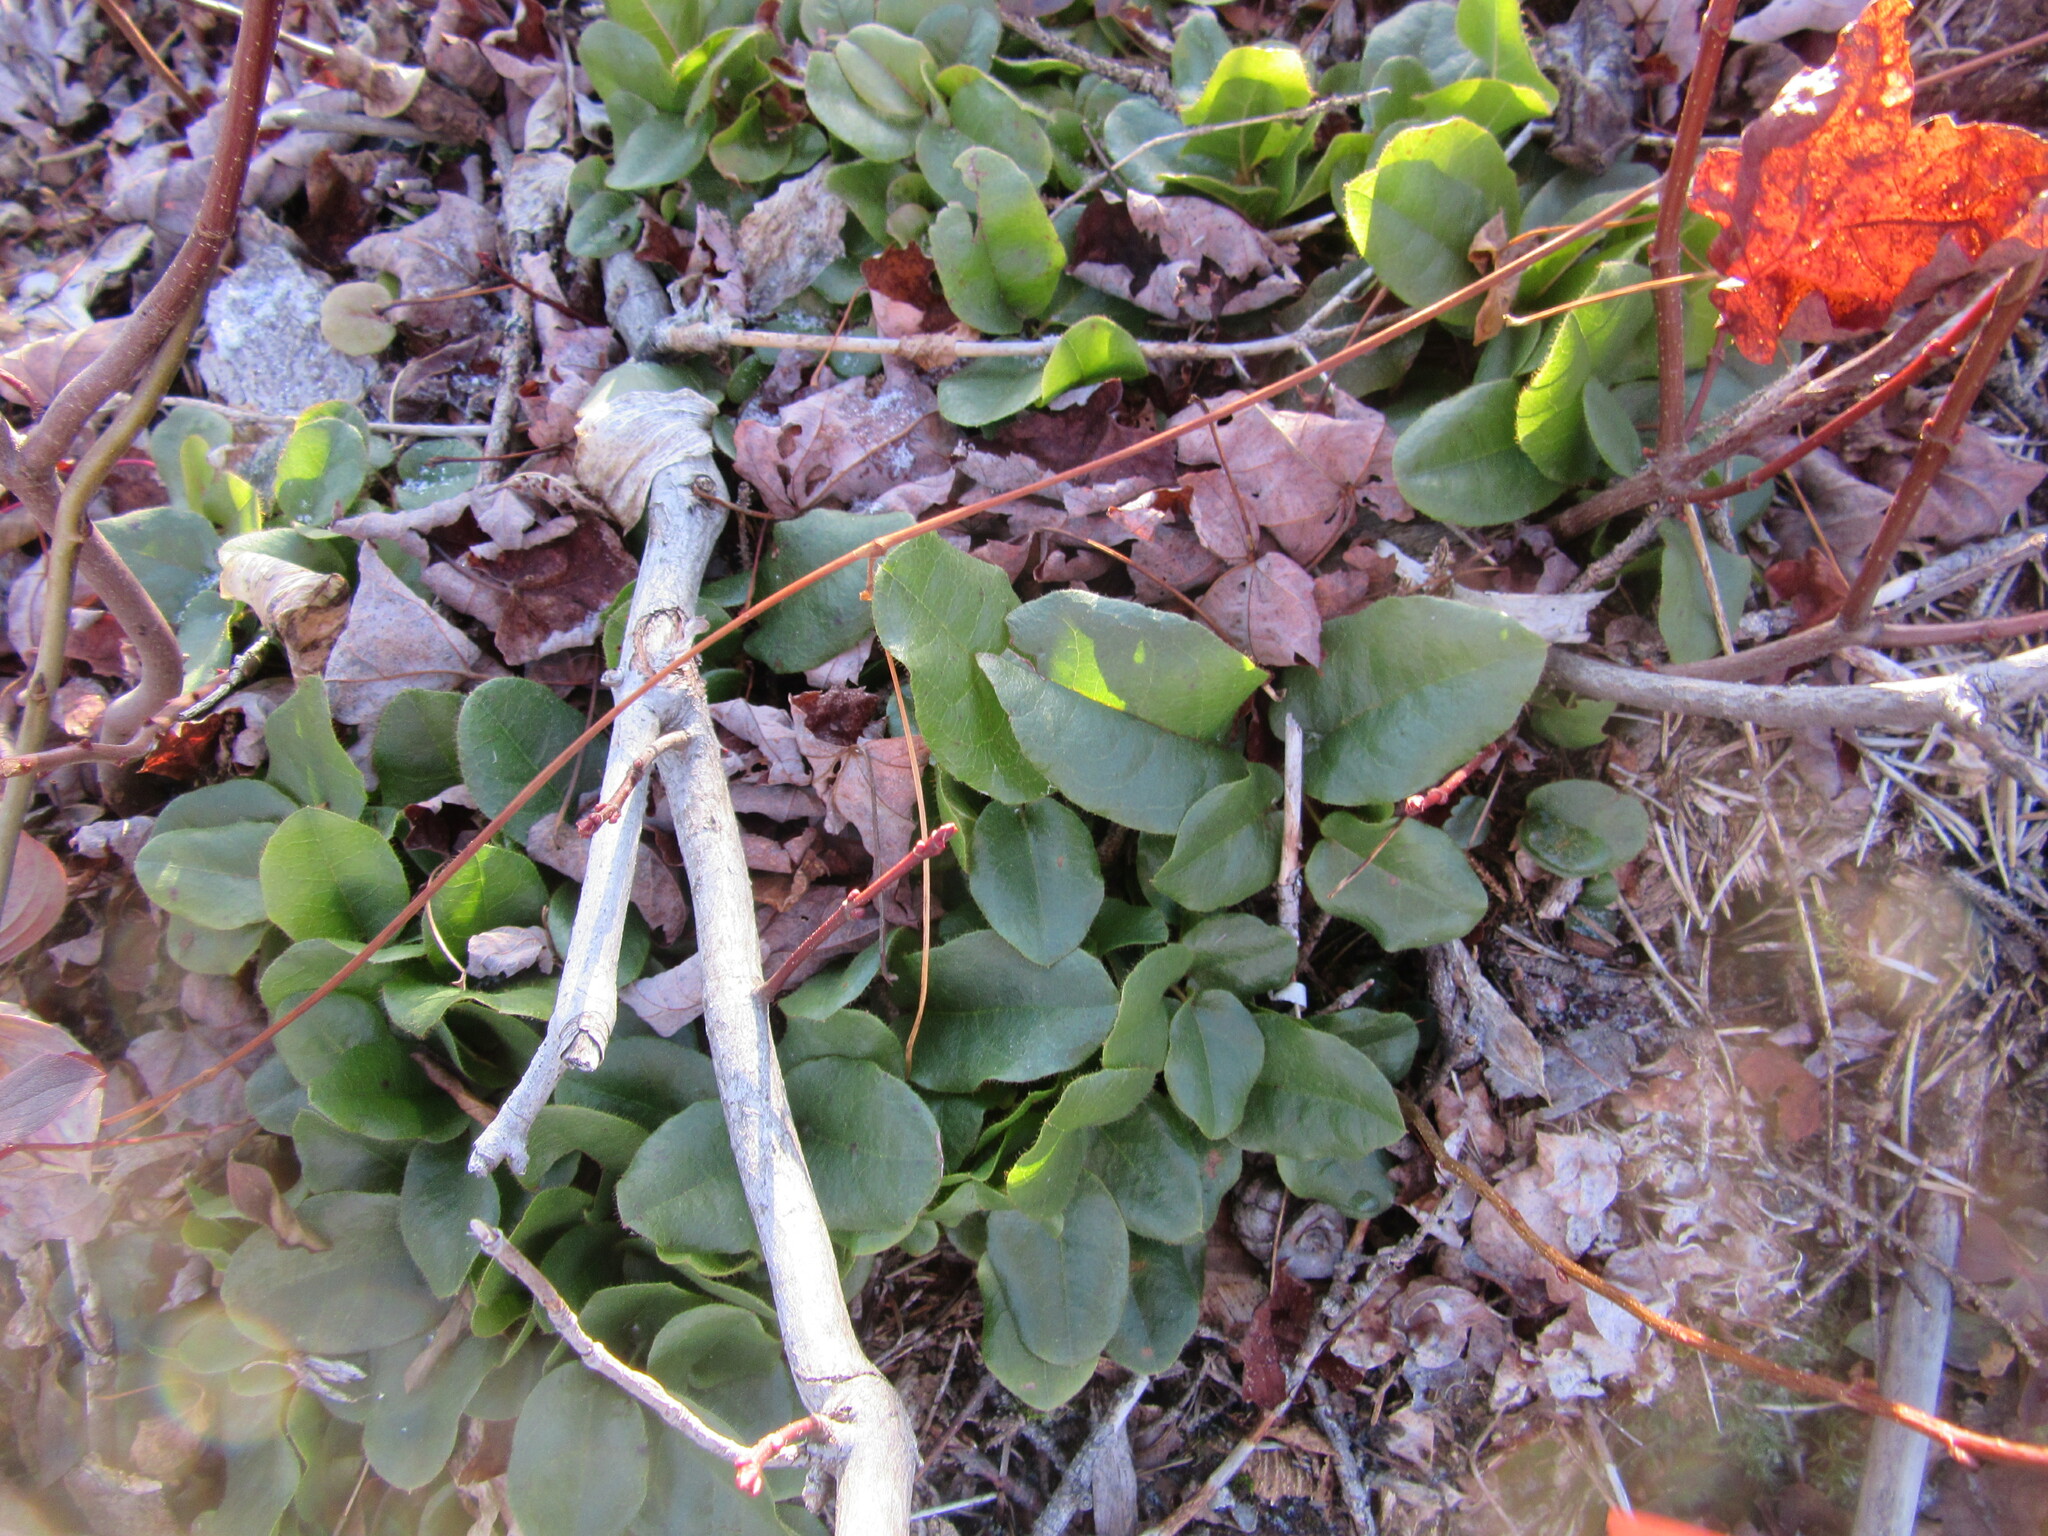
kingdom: Plantae
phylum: Tracheophyta
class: Magnoliopsida
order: Ericales
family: Ericaceae
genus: Epigaea
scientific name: Epigaea repens
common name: Gravelroot
